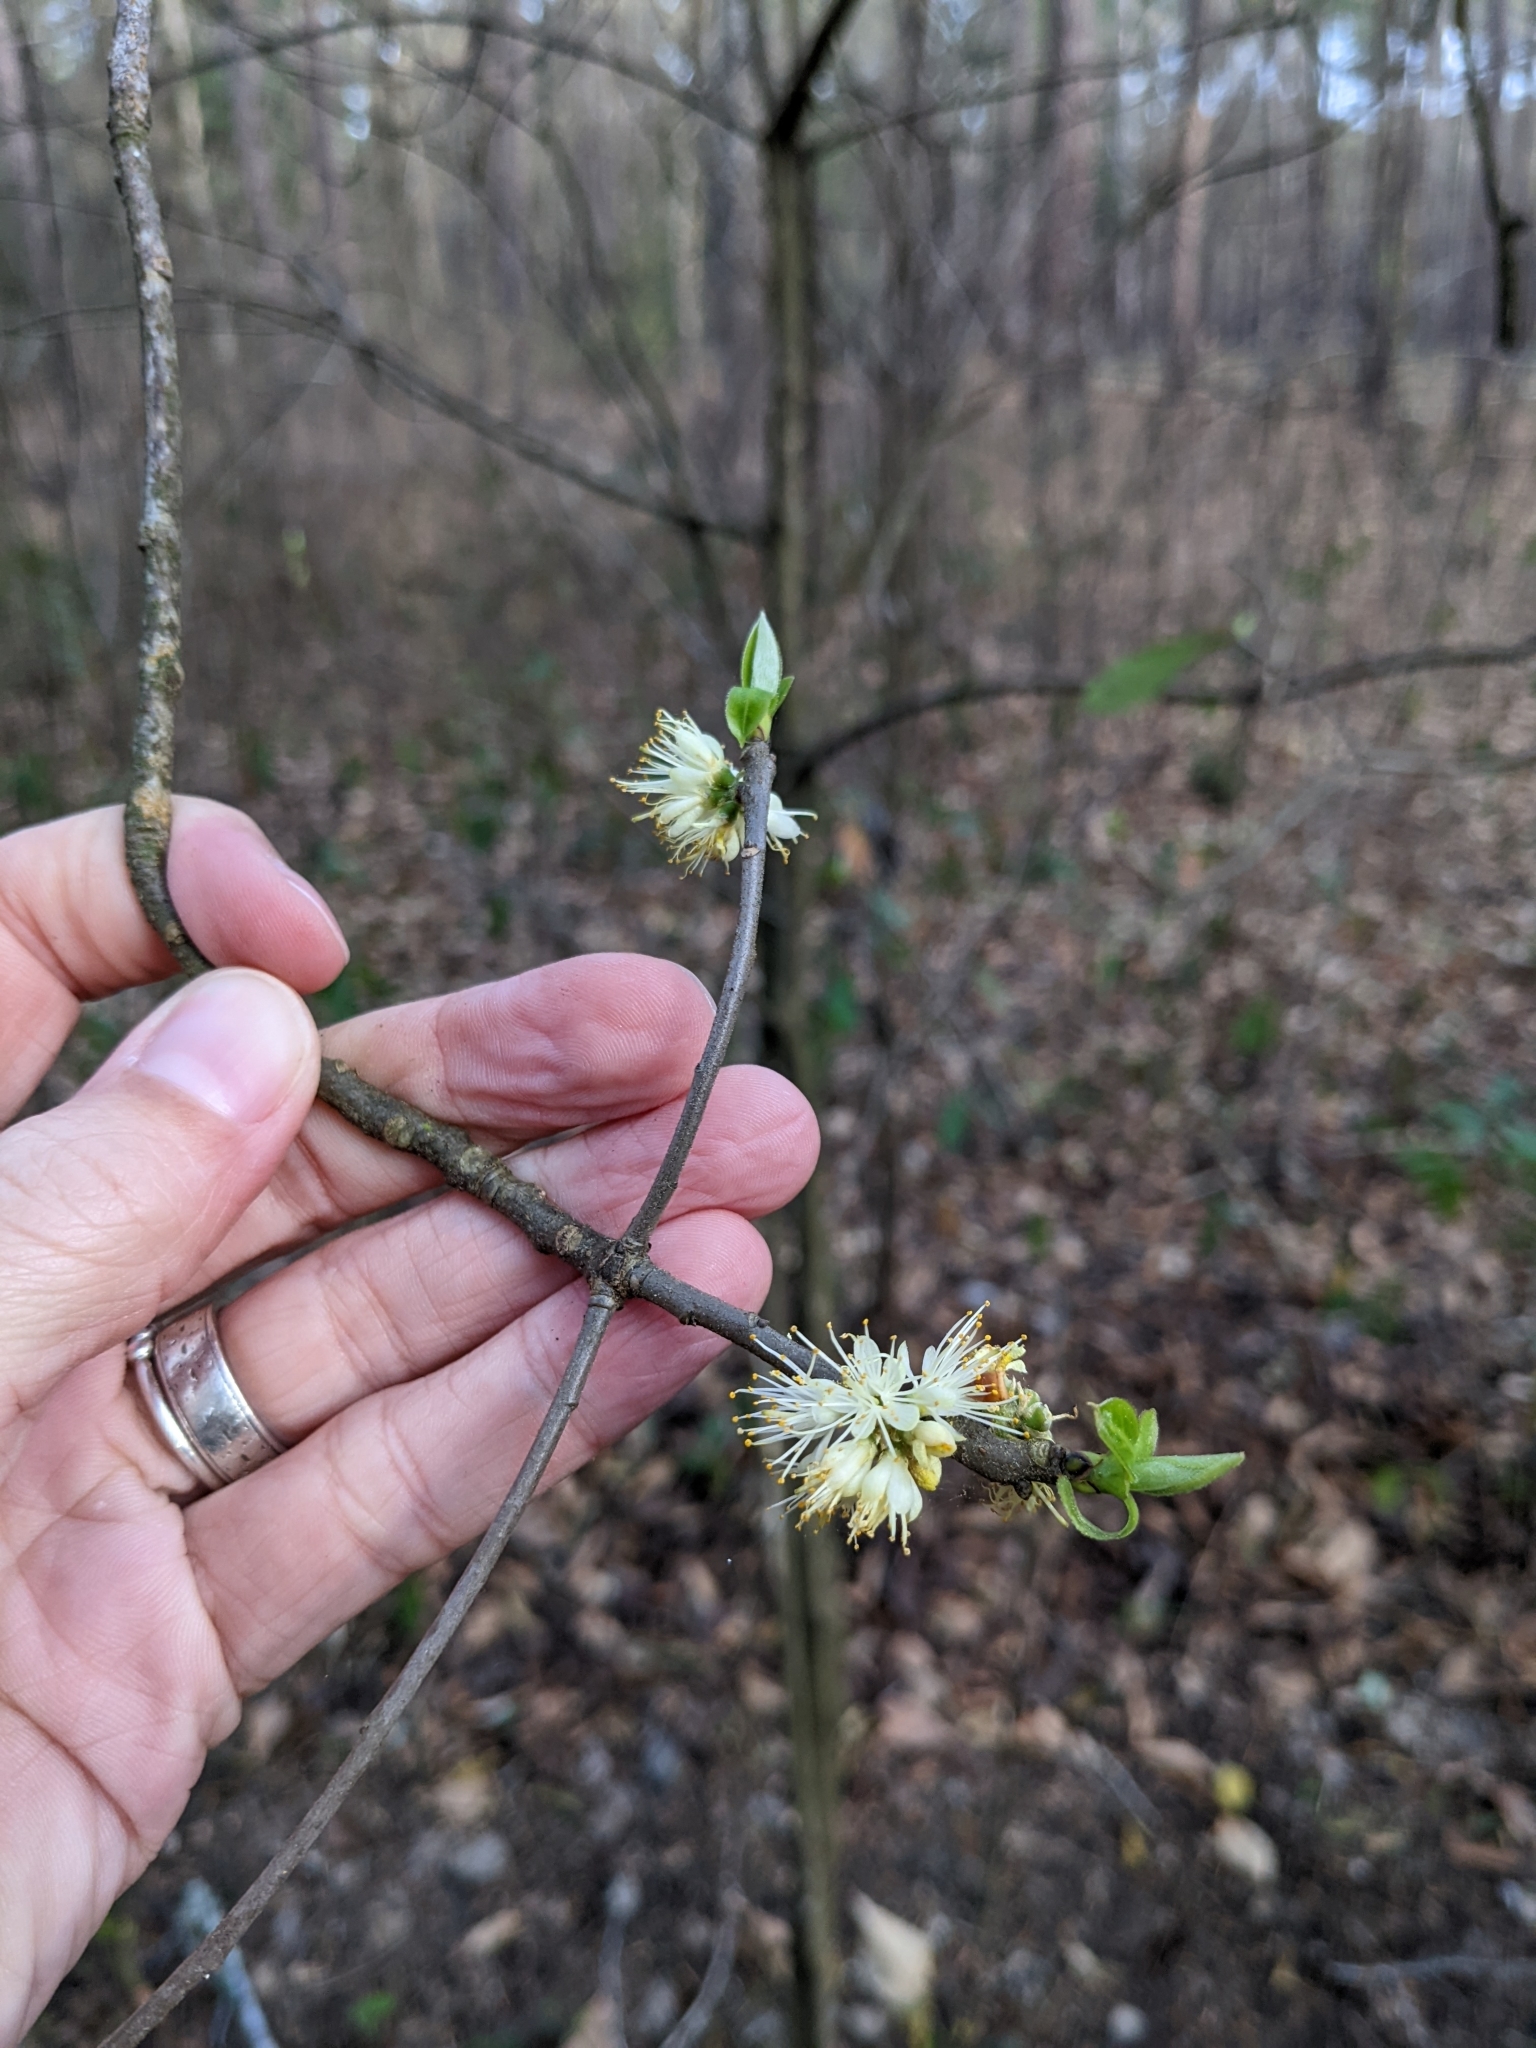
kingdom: Plantae
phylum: Tracheophyta
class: Magnoliopsida
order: Ericales
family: Symplocaceae
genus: Symplocos
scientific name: Symplocos tinctoria
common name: Horse-sugar
